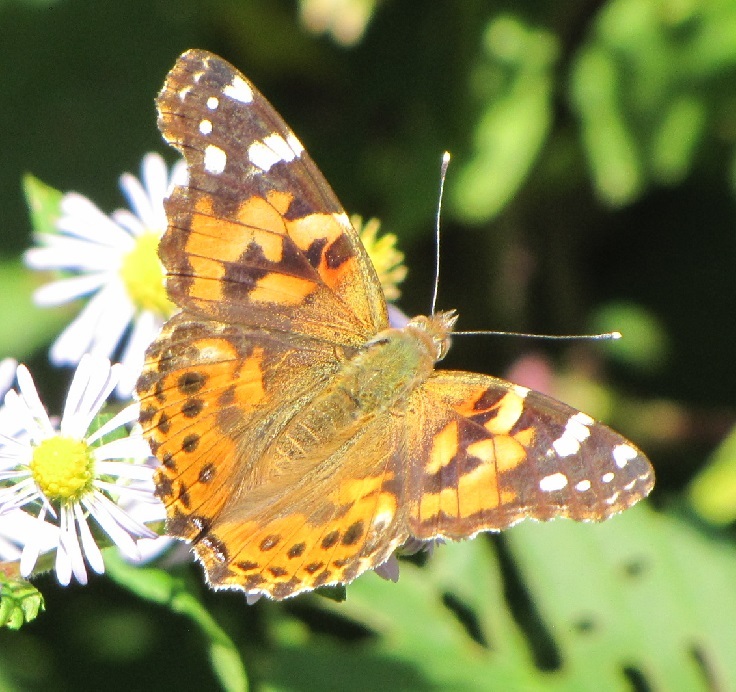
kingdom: Animalia
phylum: Arthropoda
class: Insecta
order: Lepidoptera
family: Nymphalidae
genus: Vanessa
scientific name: Vanessa cardui
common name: Painted lady
